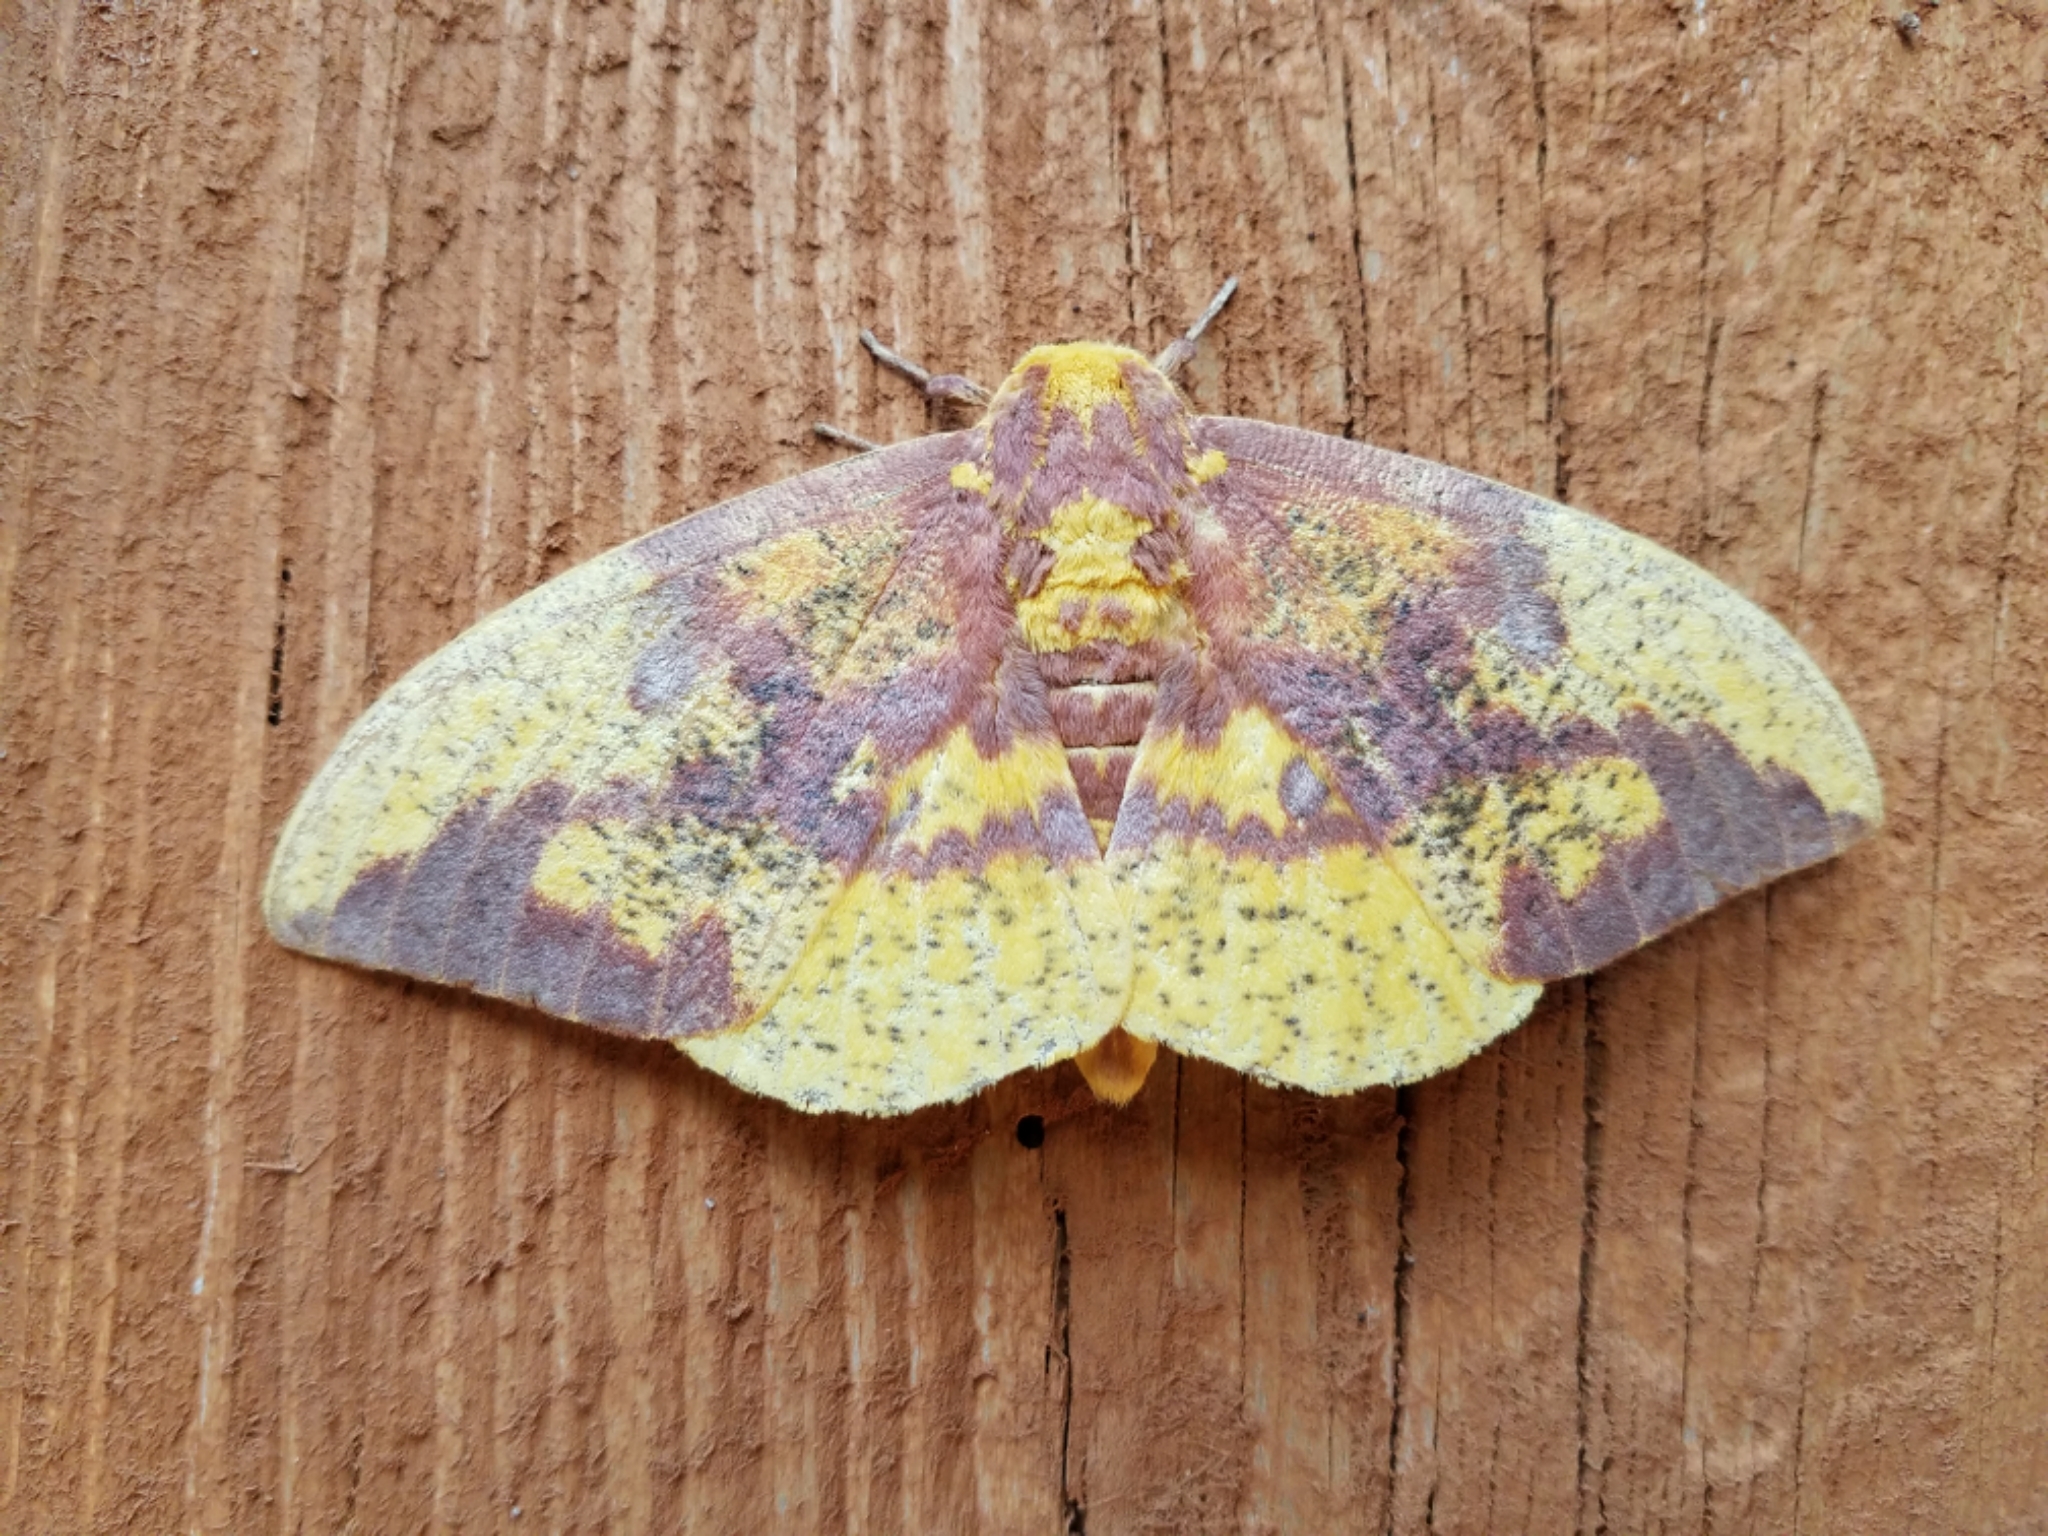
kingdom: Animalia
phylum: Arthropoda
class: Insecta
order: Lepidoptera
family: Saturniidae
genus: Eacles
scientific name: Eacles imperialis
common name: Imperial moth
